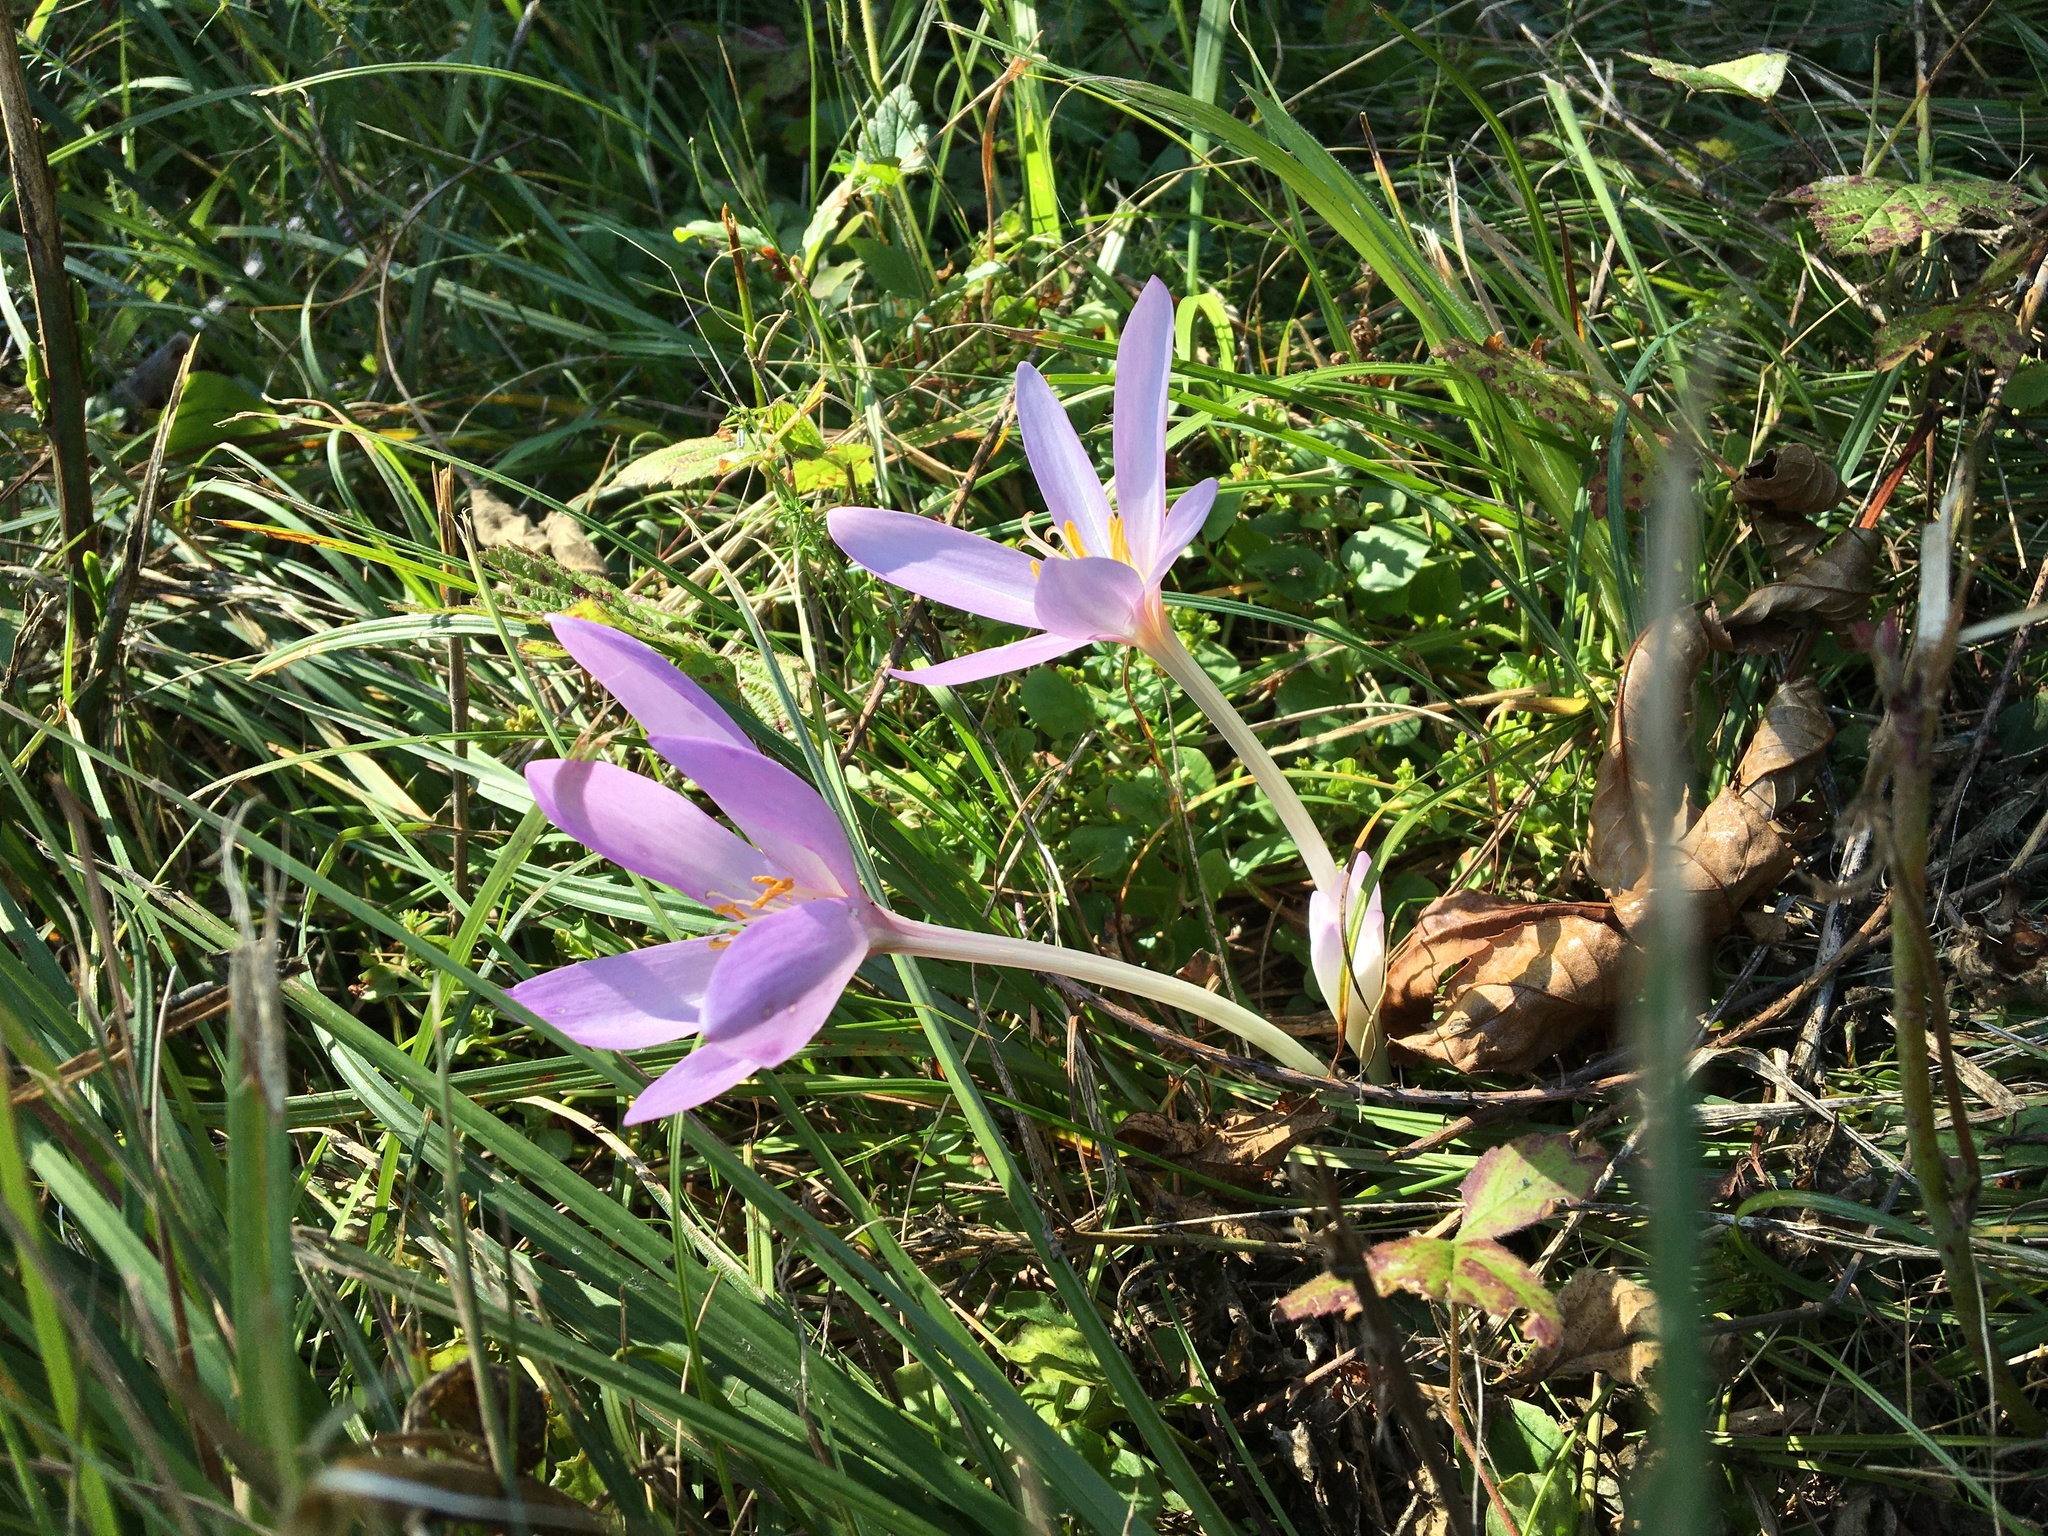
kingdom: Plantae
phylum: Tracheophyta
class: Liliopsida
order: Liliales
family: Colchicaceae
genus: Colchicum
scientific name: Colchicum autumnale
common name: Autumn crocus
